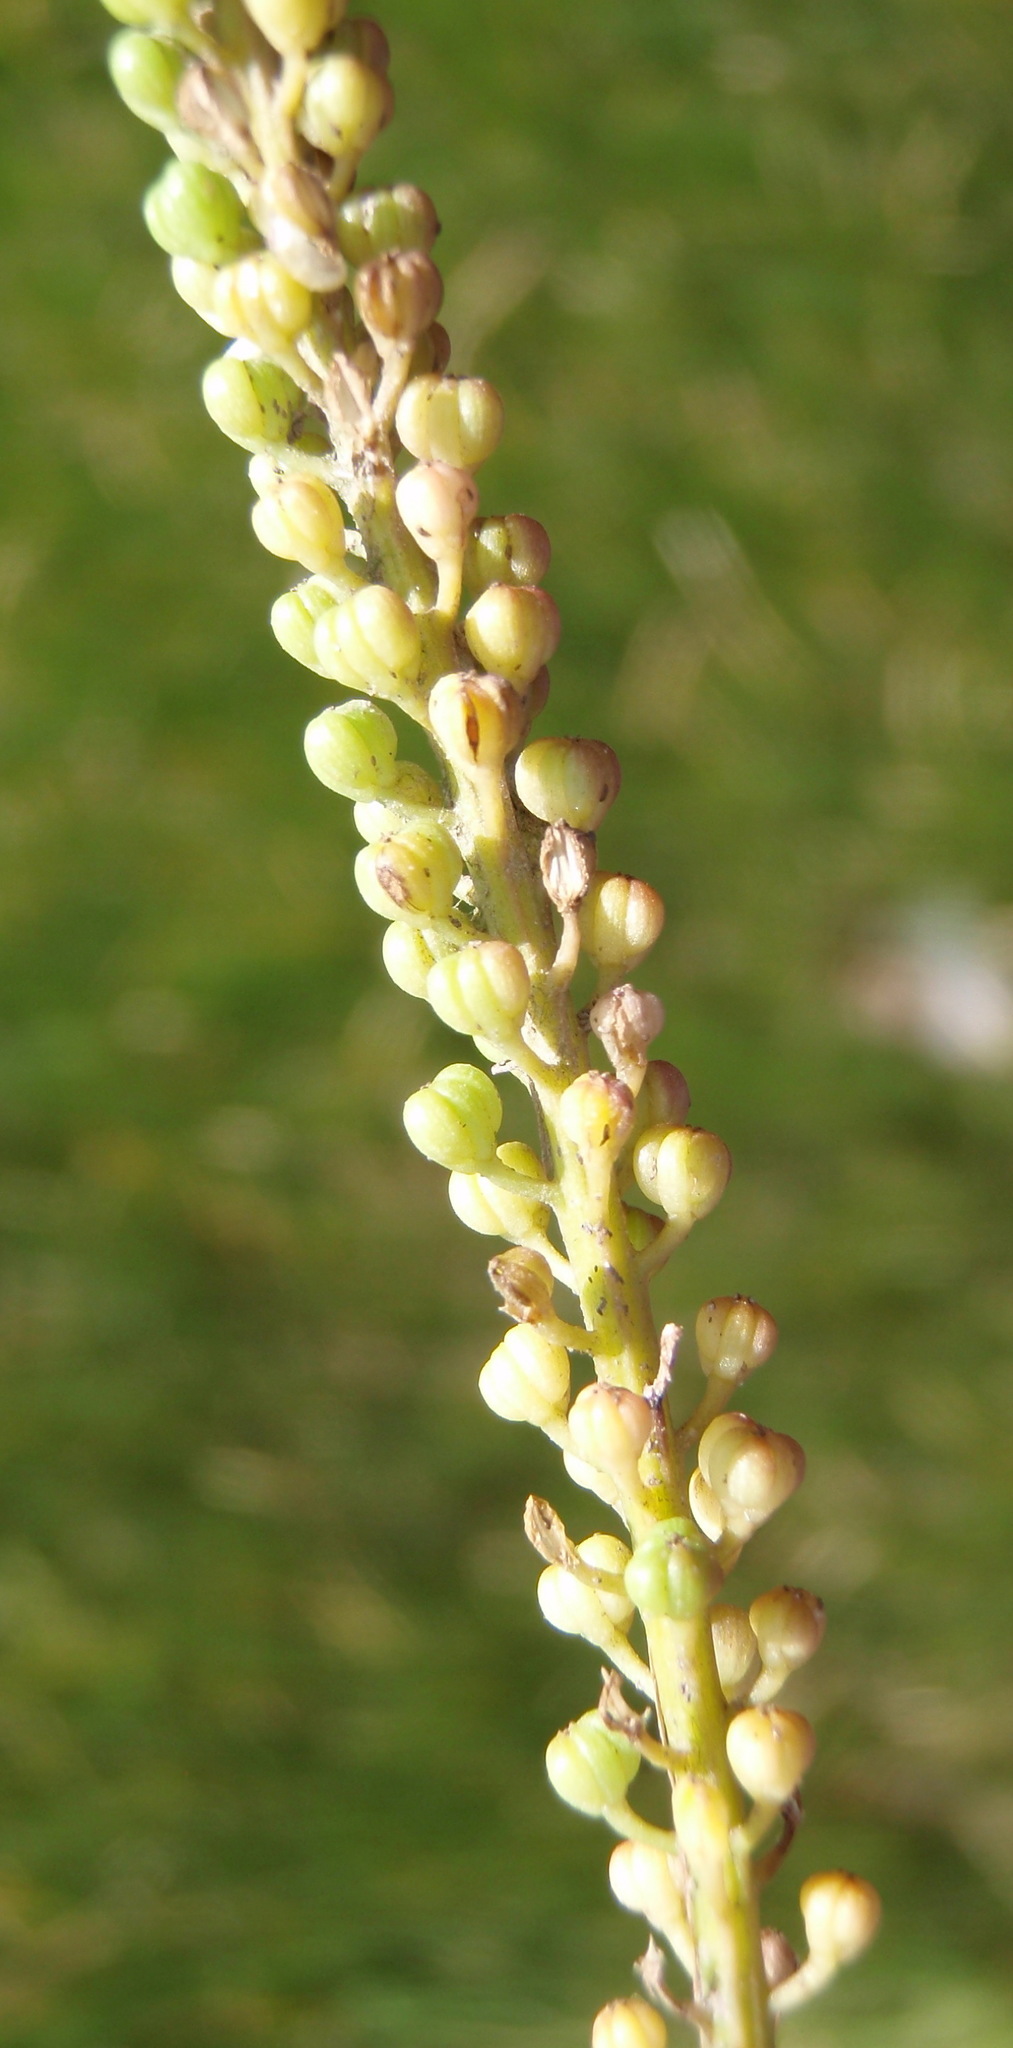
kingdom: Plantae
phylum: Tracheophyta
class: Liliopsida
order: Alismatales
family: Juncaginaceae
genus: Triglochin
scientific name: Triglochin bulbosa
